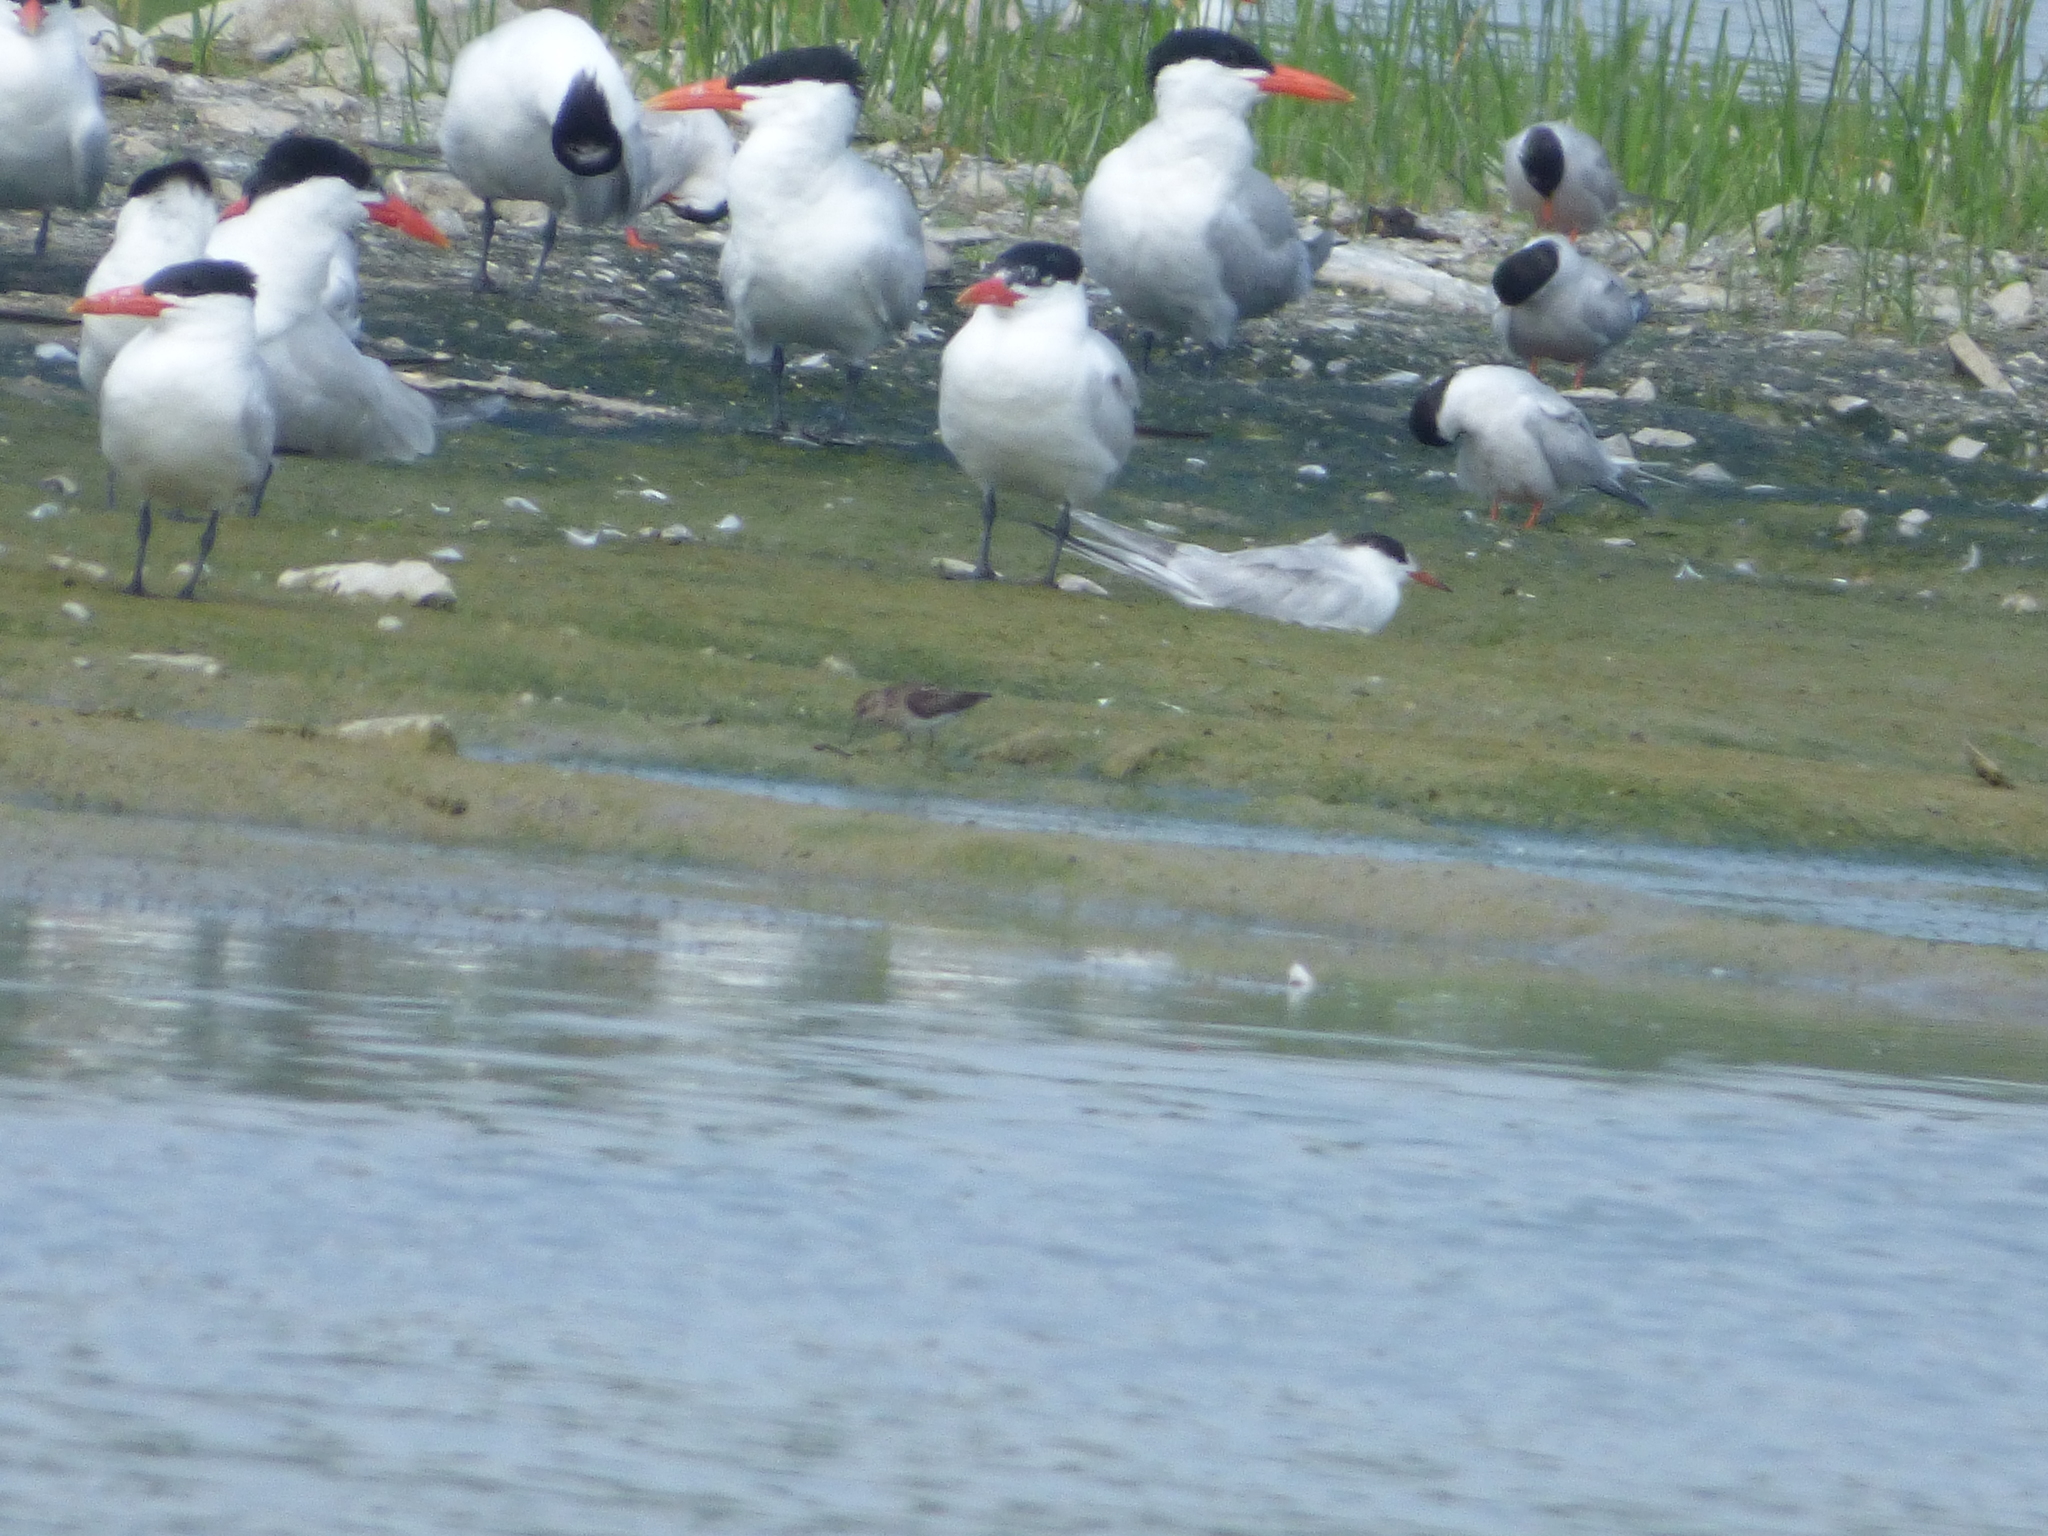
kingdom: Animalia
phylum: Chordata
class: Aves
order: Charadriiformes
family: Scolopacidae
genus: Calidris
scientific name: Calidris minutilla
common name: Least sandpiper
